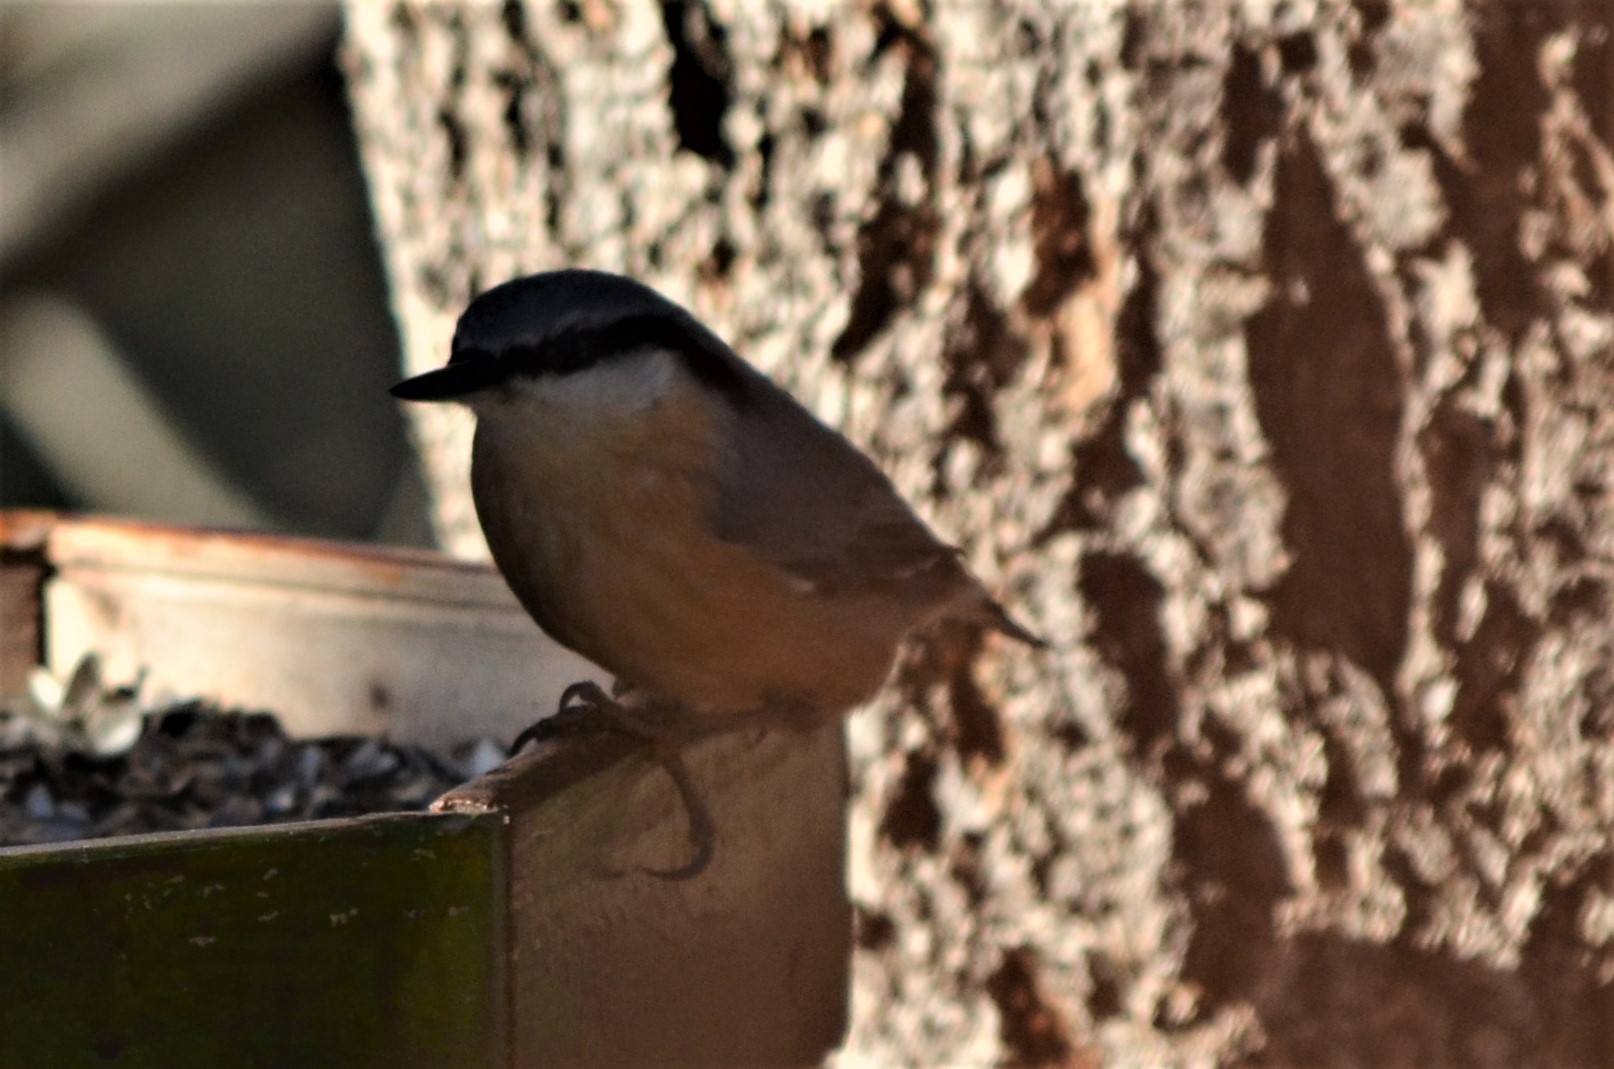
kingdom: Animalia
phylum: Chordata
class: Aves
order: Passeriformes
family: Sittidae
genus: Sitta
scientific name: Sitta europaea
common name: Eurasian nuthatch
